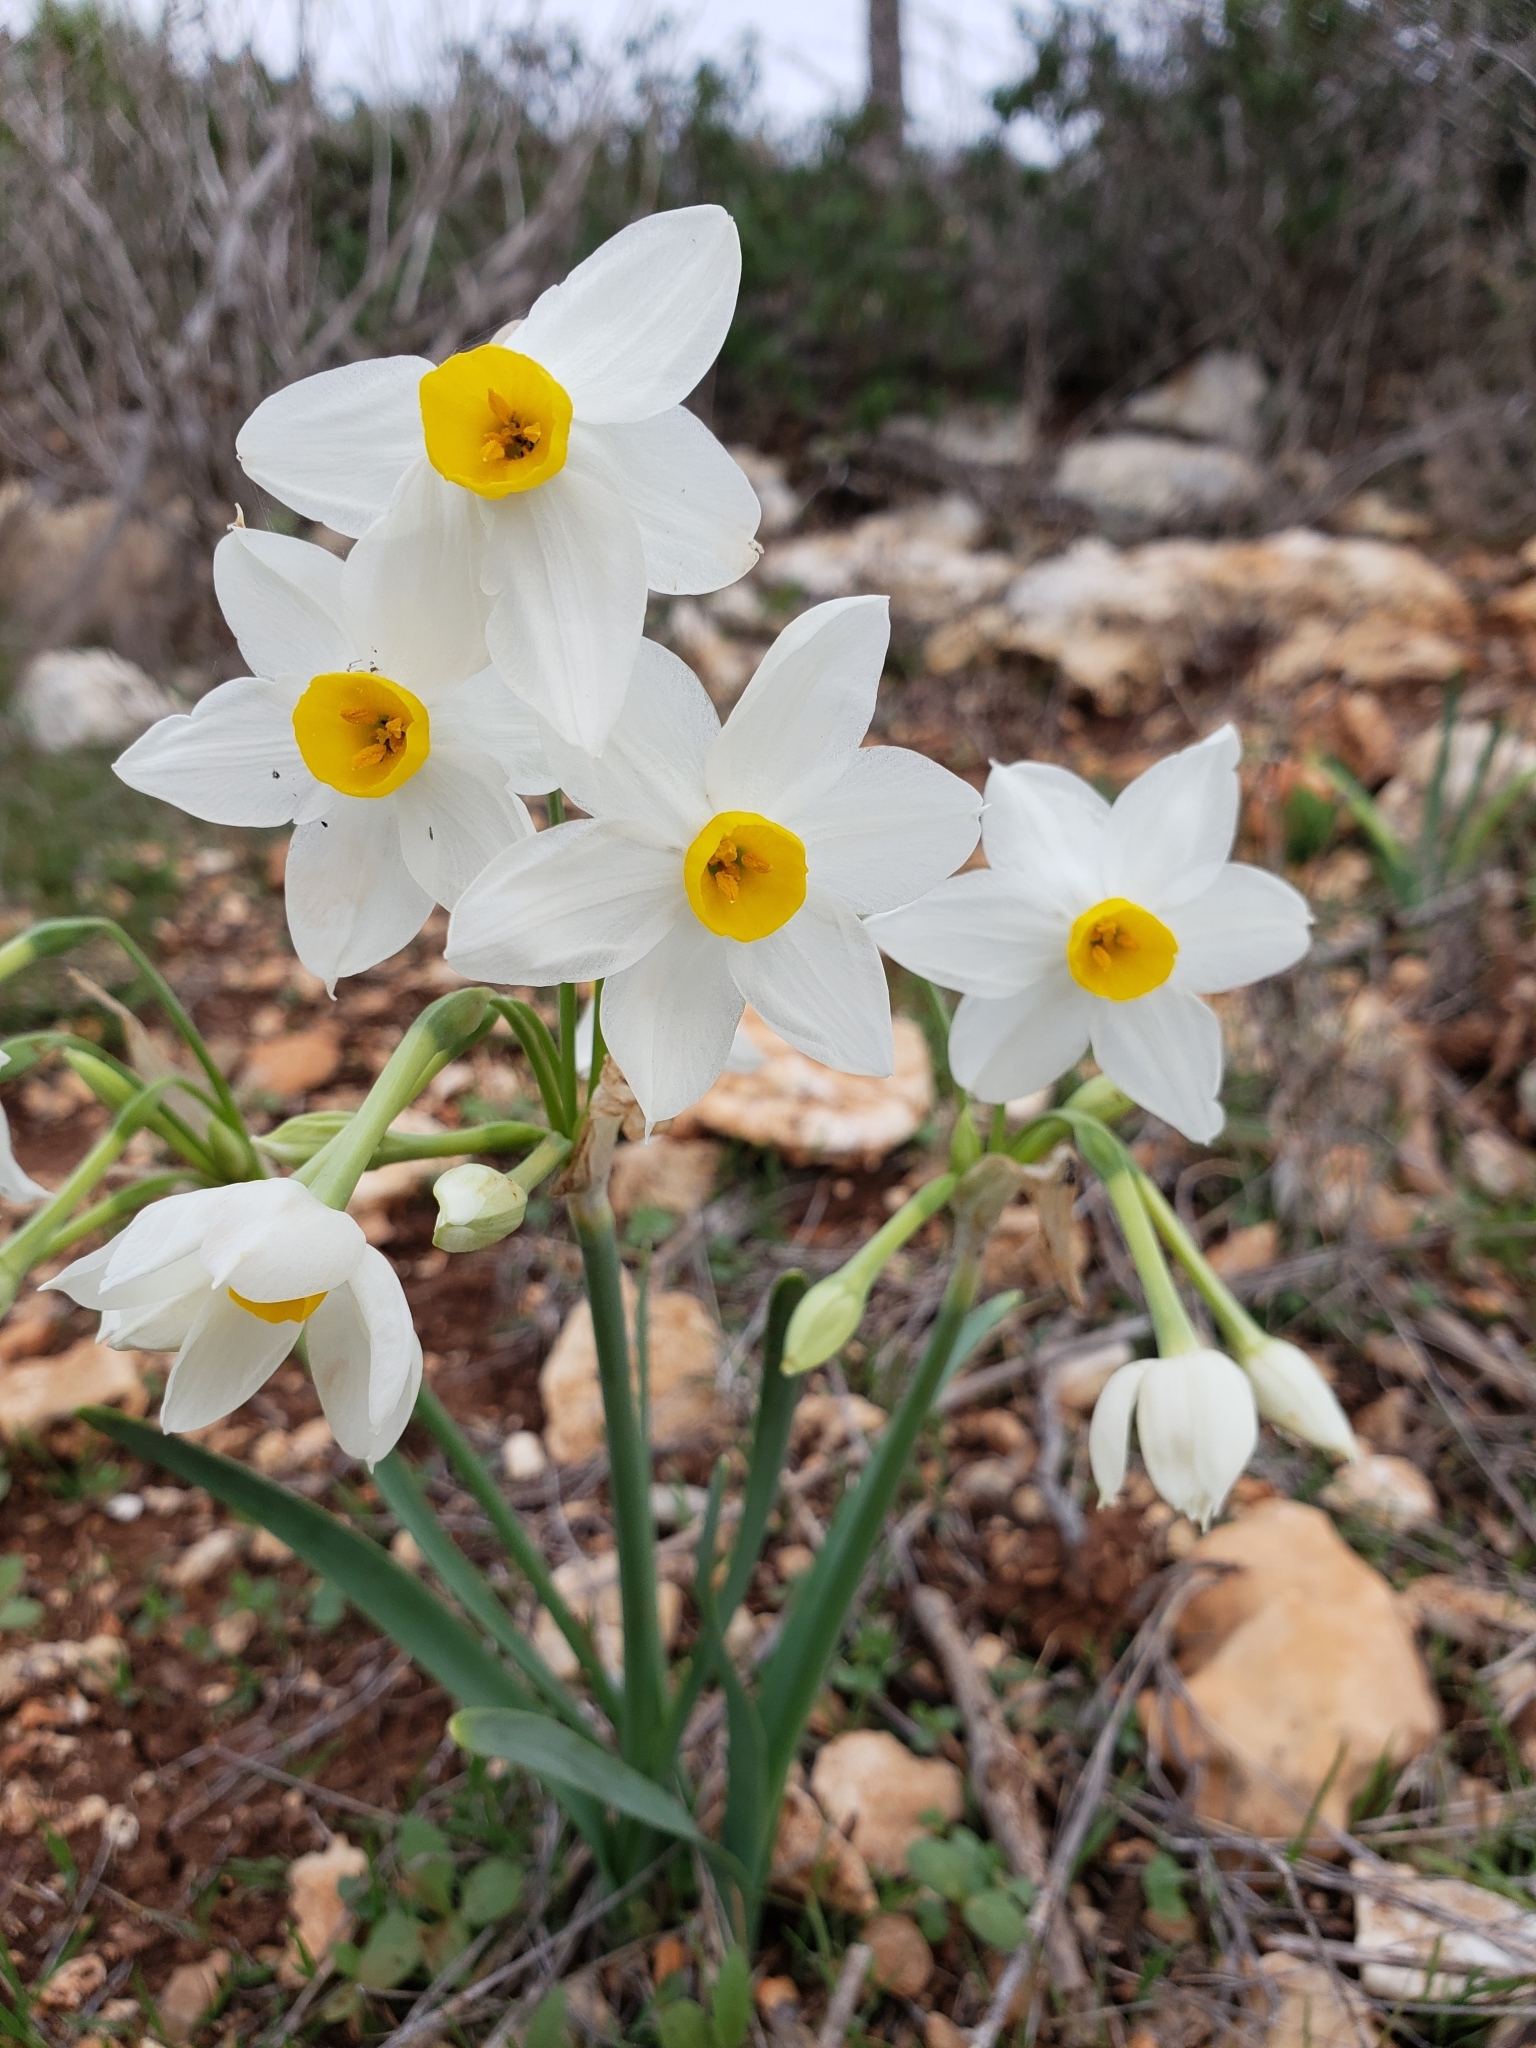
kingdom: Plantae
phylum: Tracheophyta
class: Liliopsida
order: Asparagales
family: Amaryllidaceae
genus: Narcissus
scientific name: Narcissus tazetta
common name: Bunch-flowered daffodil
